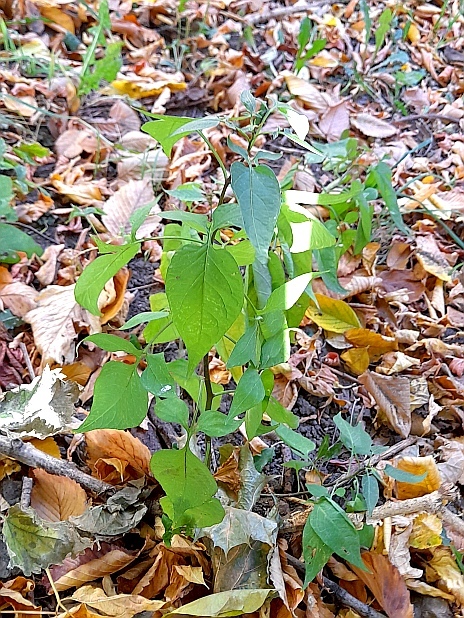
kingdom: Plantae
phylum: Tracheophyta
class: Magnoliopsida
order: Solanales
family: Solanaceae
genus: Solanum
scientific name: Solanum dulcamara
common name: Climbing nightshade
